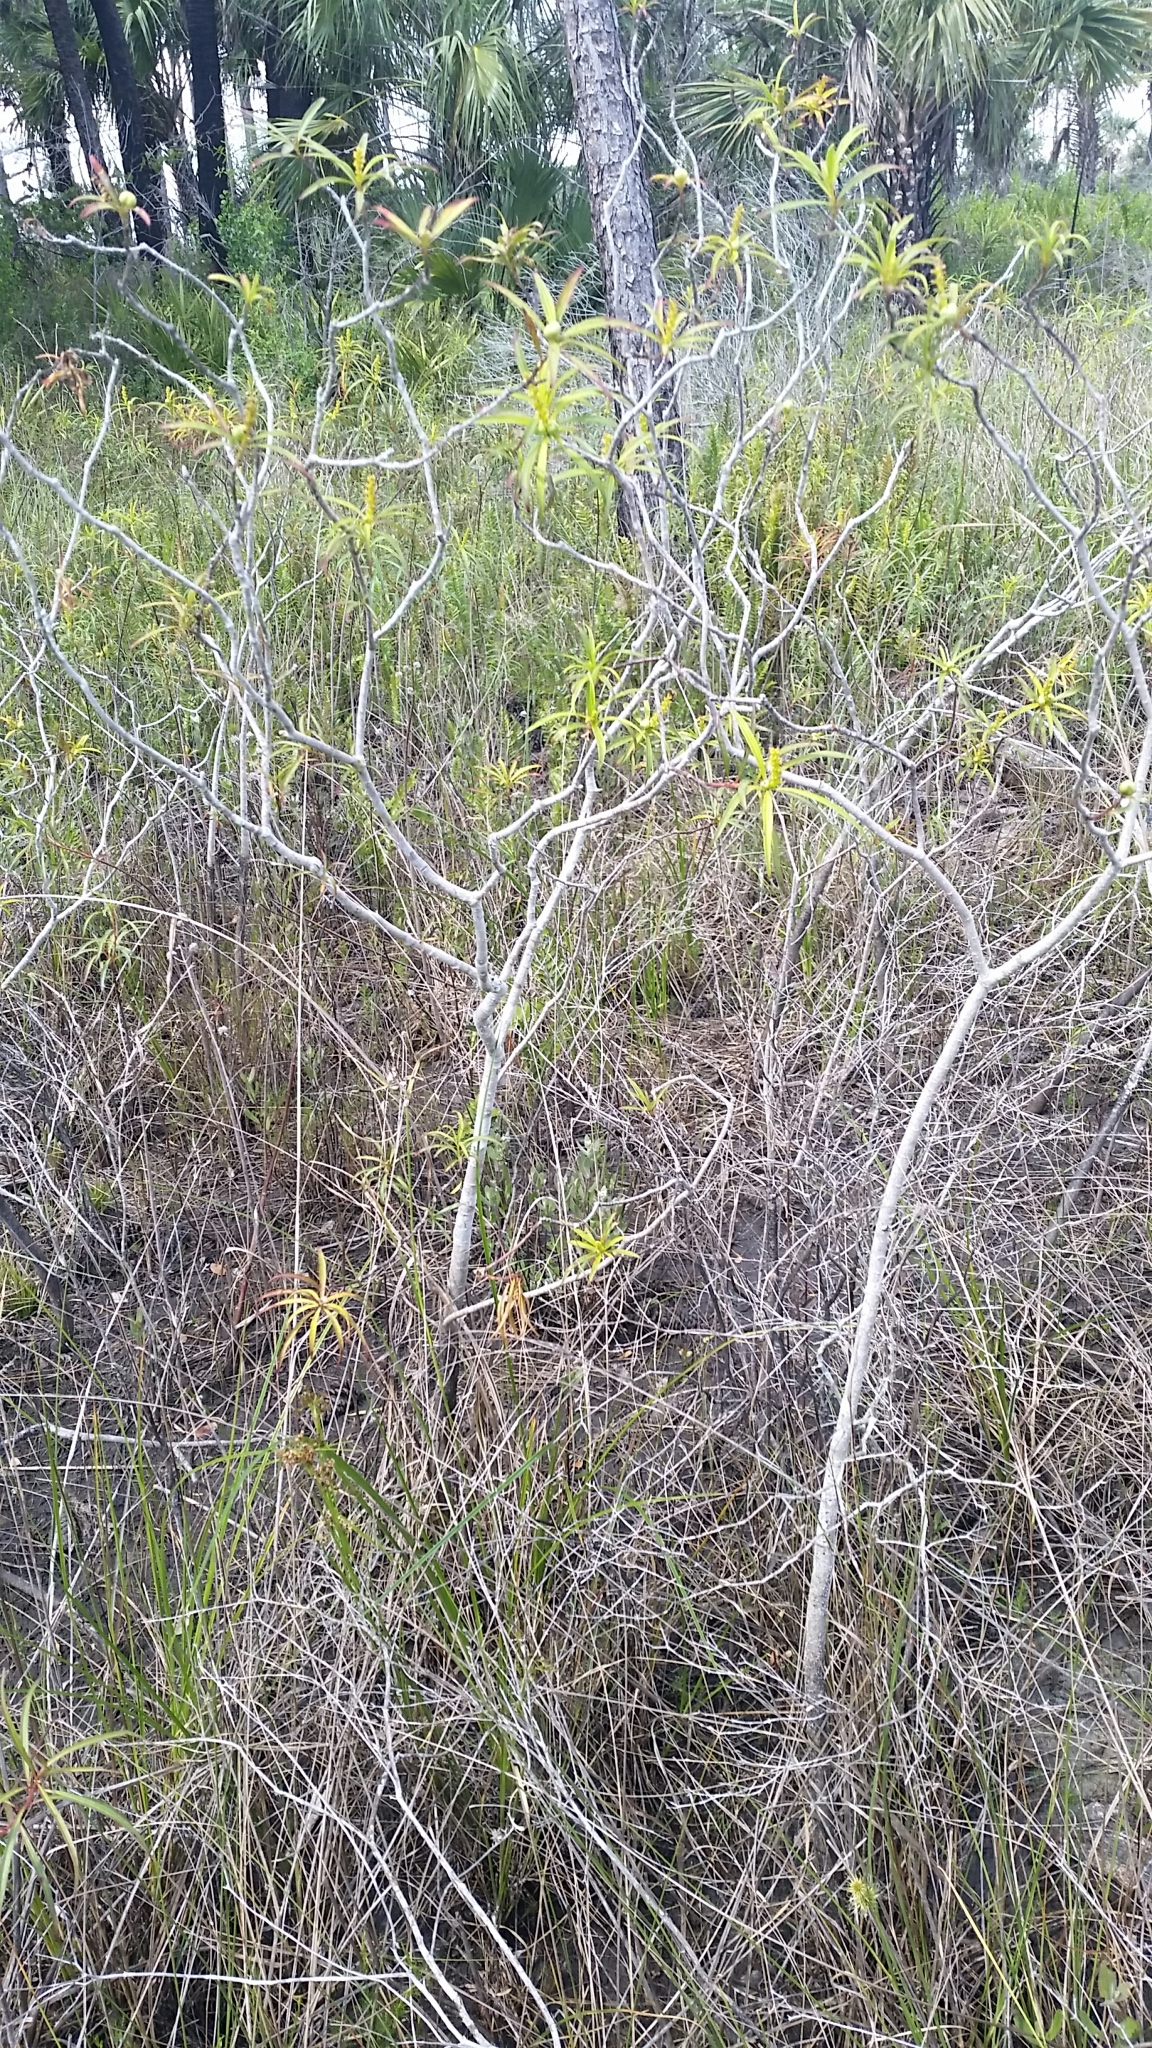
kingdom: Plantae
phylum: Tracheophyta
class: Magnoliopsida
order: Malpighiales
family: Euphorbiaceae
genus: Stillingia
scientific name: Stillingia aquatica
